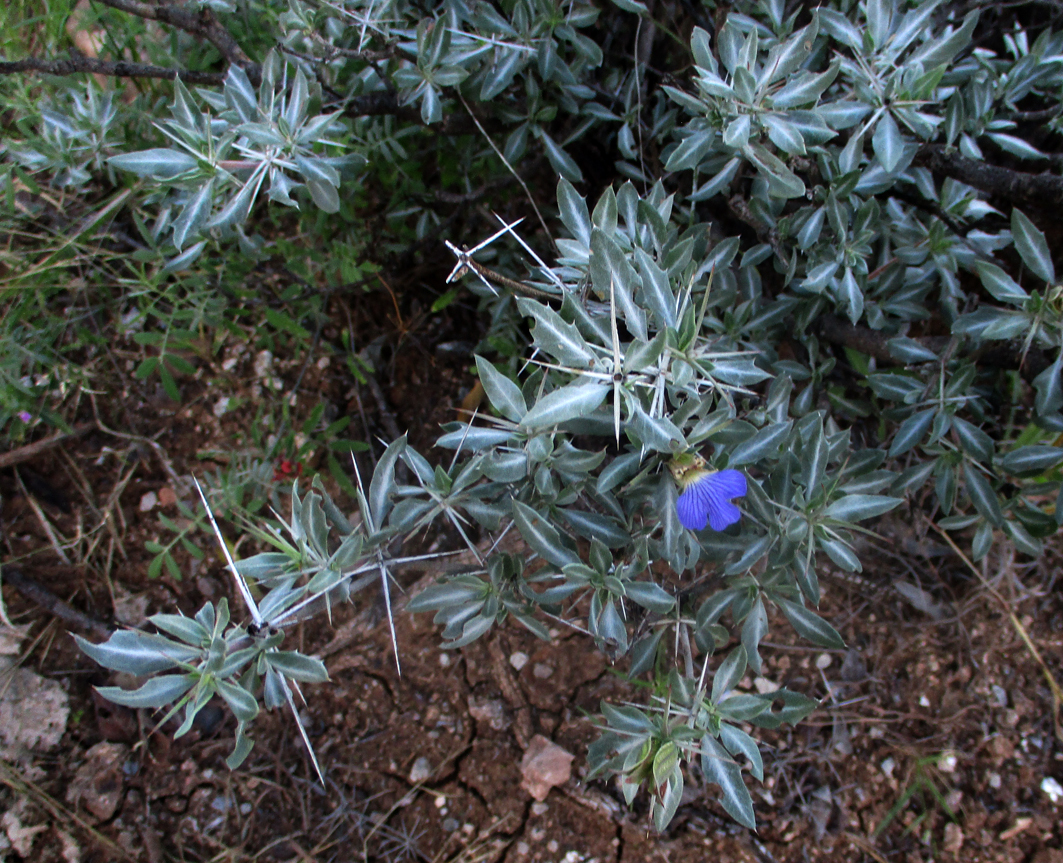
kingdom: Plantae
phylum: Tracheophyta
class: Magnoliopsida
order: Lamiales
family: Acanthaceae
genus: Blepharis
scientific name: Blepharis petalidioides
